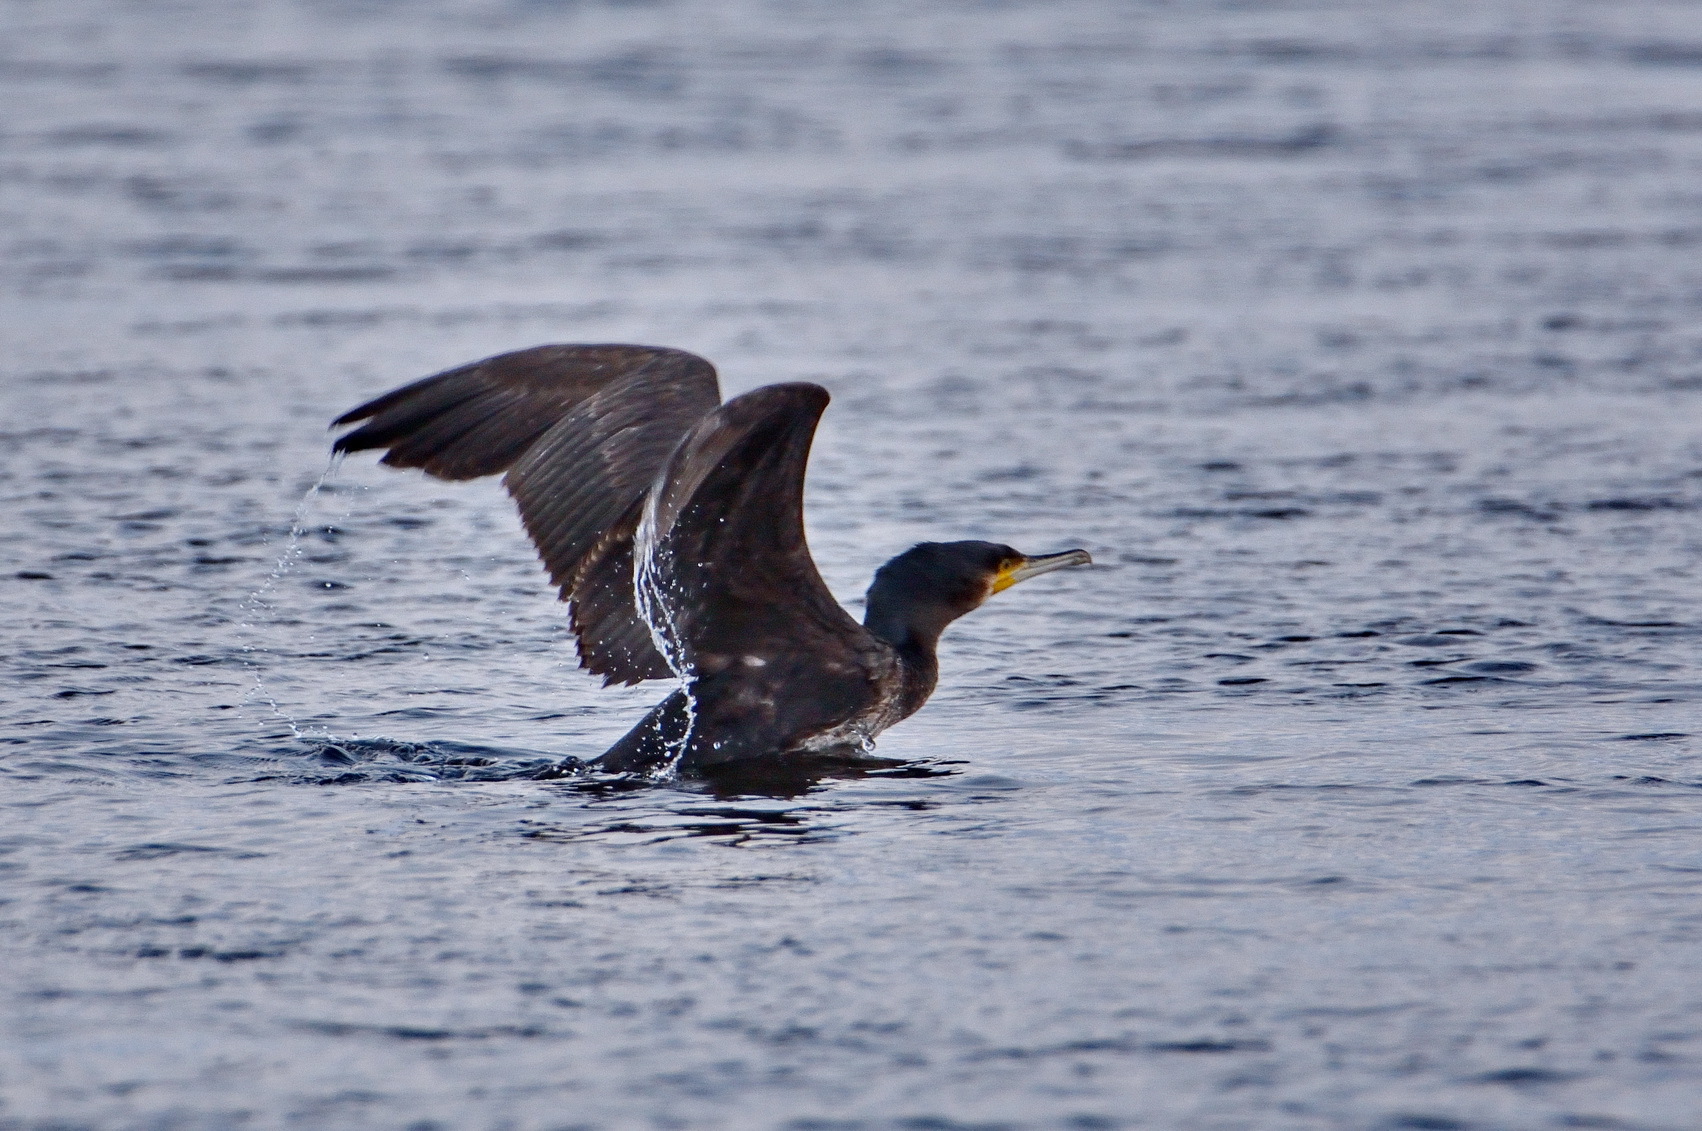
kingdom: Animalia
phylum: Chordata
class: Aves
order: Suliformes
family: Phalacrocoracidae
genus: Phalacrocorax
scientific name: Phalacrocorax carbo
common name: Great cormorant
